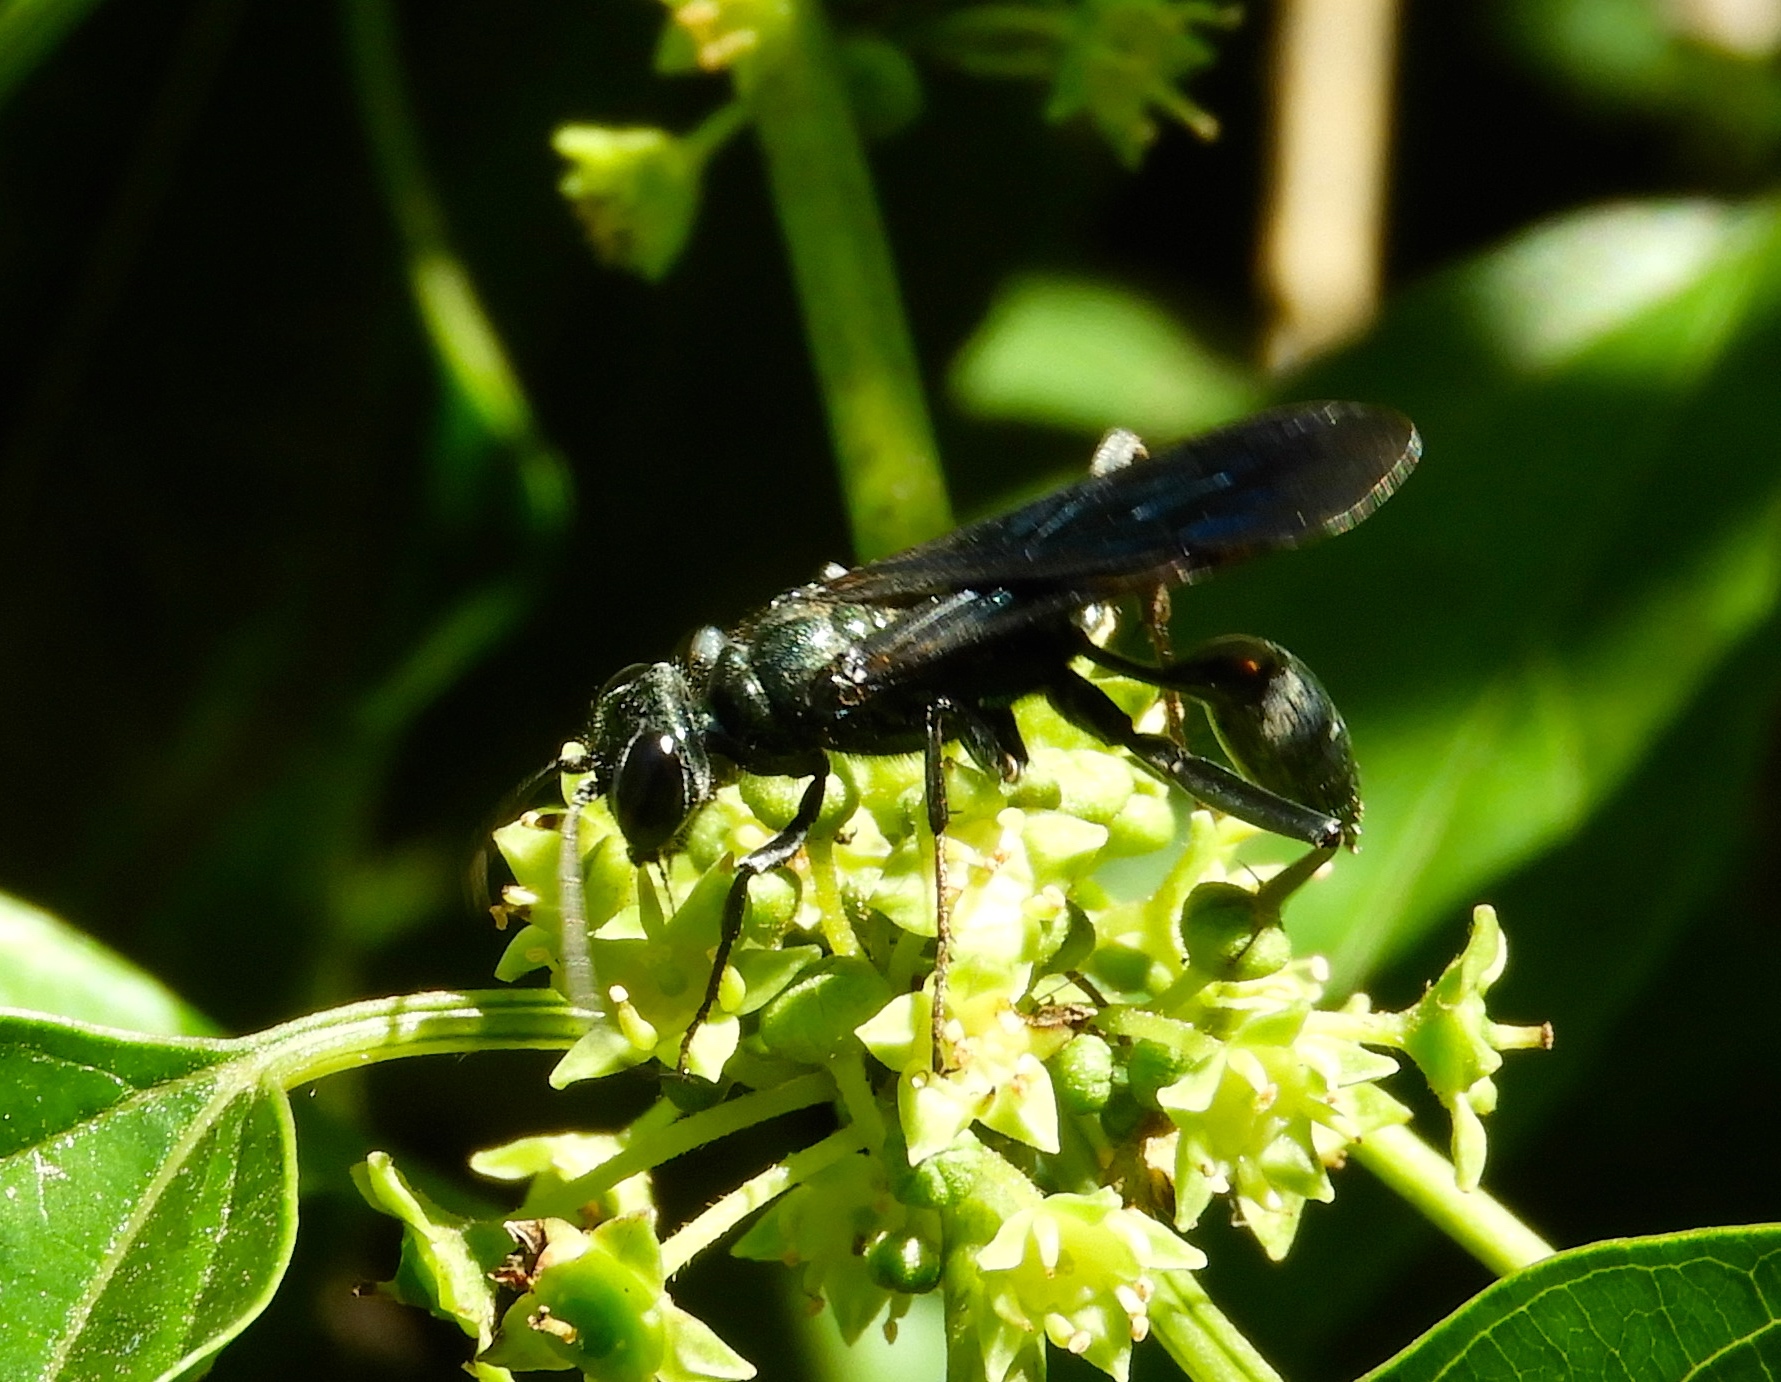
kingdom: Animalia
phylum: Arthropoda
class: Insecta
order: Hymenoptera
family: Sphecidae
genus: Chalybion
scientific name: Chalybion
